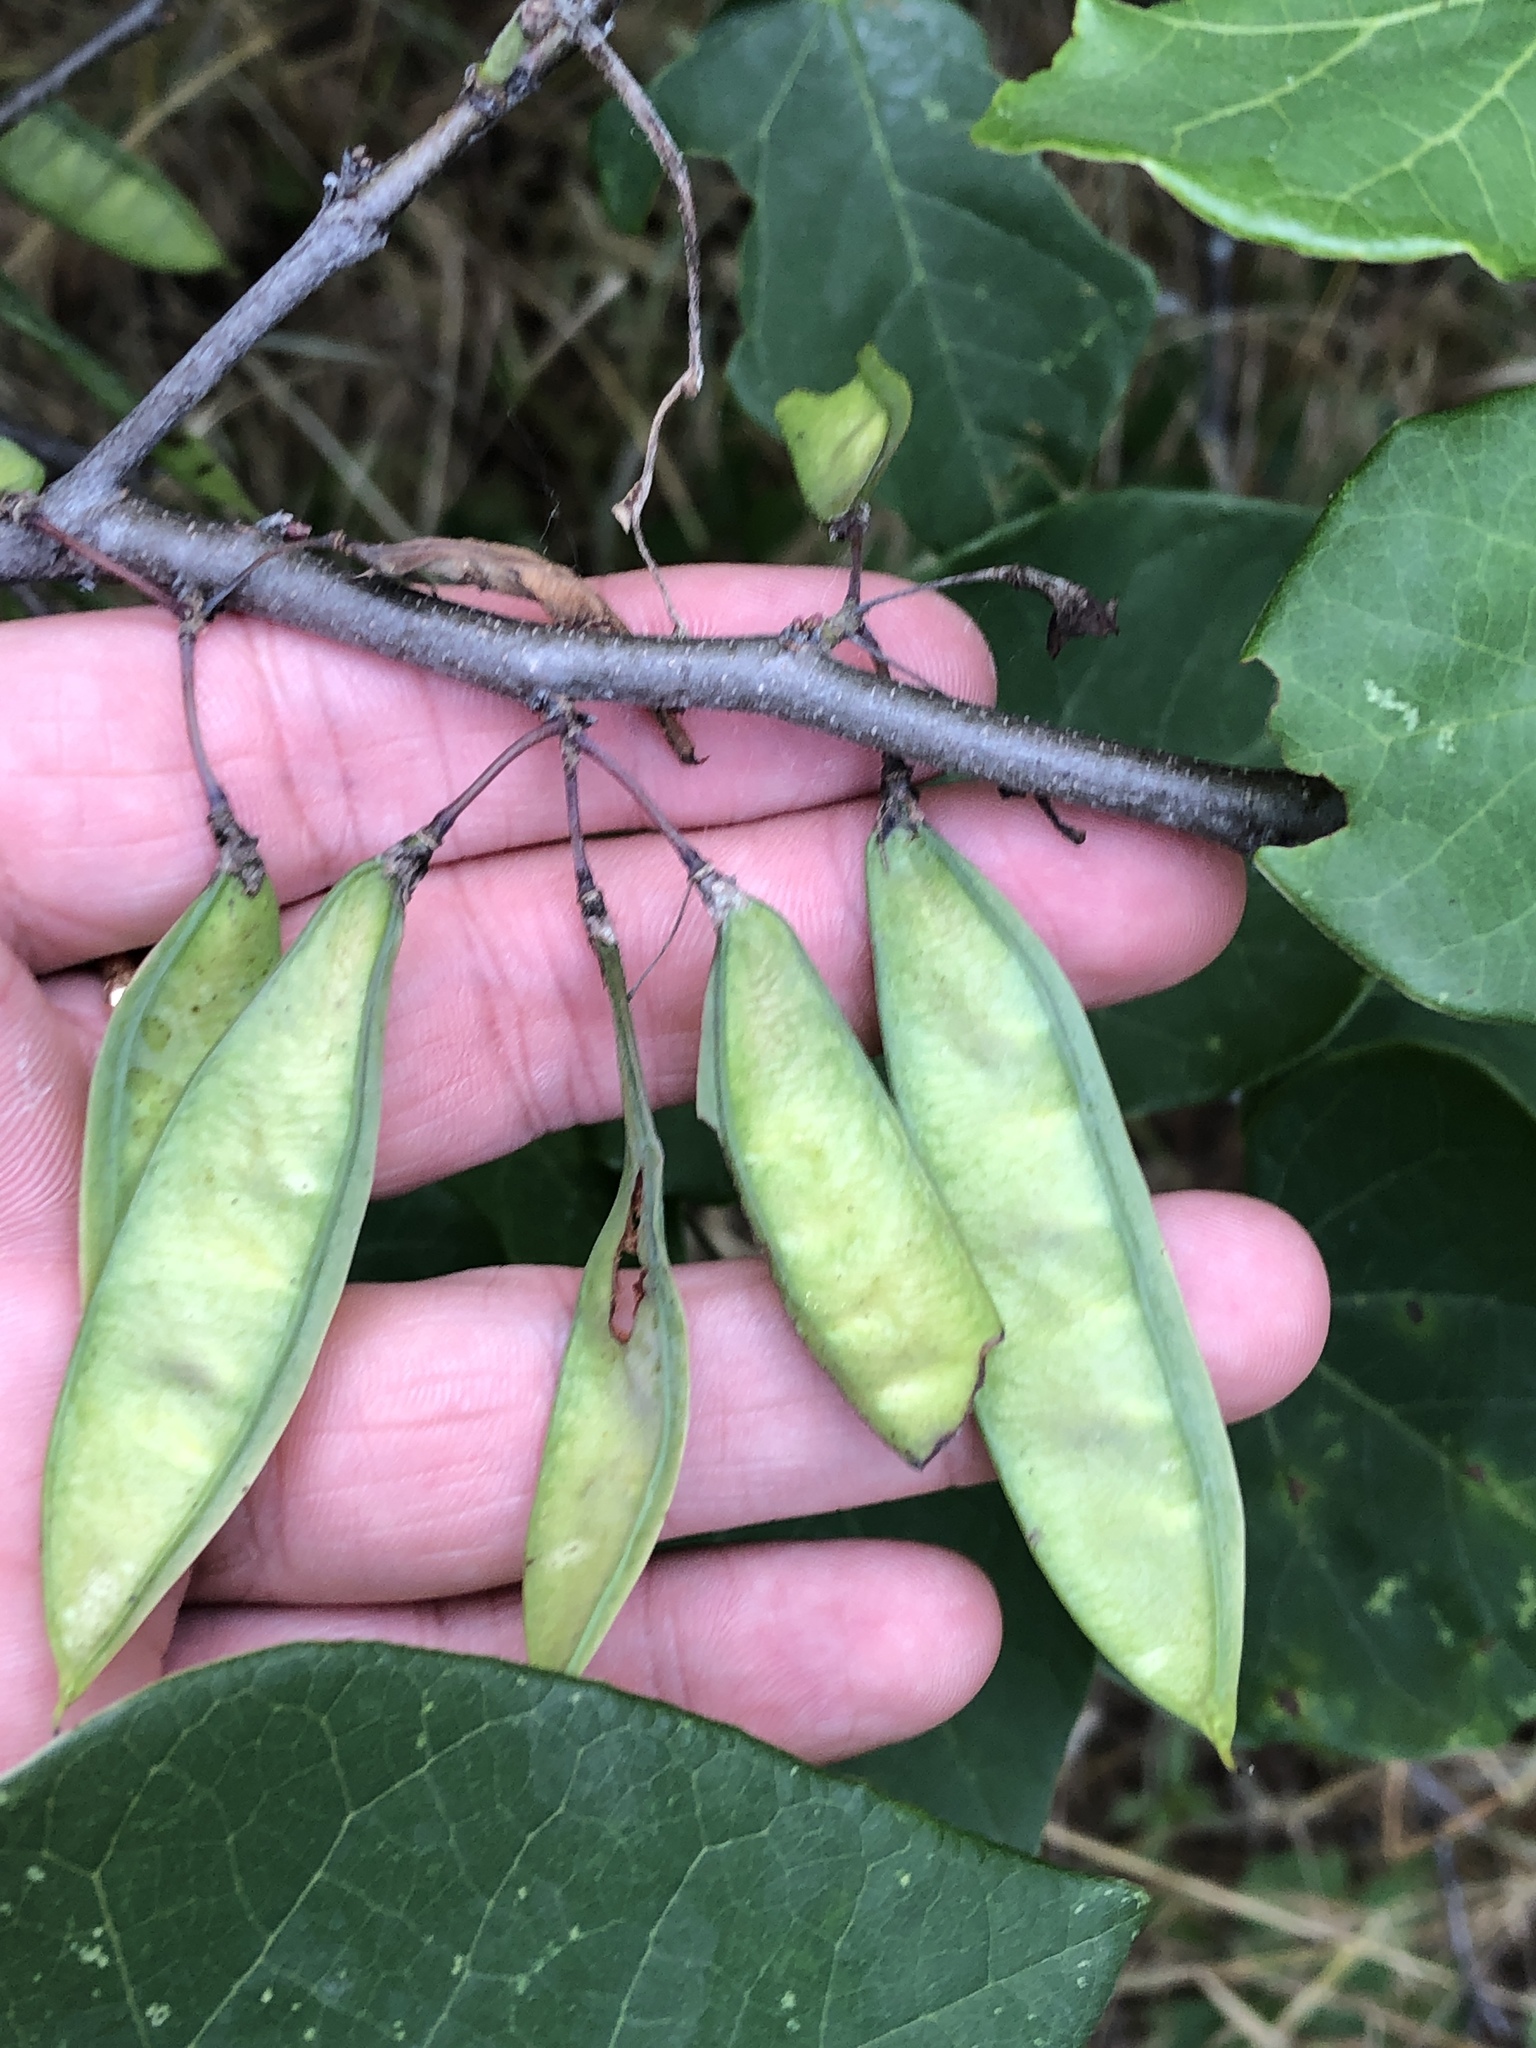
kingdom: Plantae
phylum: Tracheophyta
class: Magnoliopsida
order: Fabales
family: Fabaceae
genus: Cercis
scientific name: Cercis canadensis
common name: Eastern redbud
